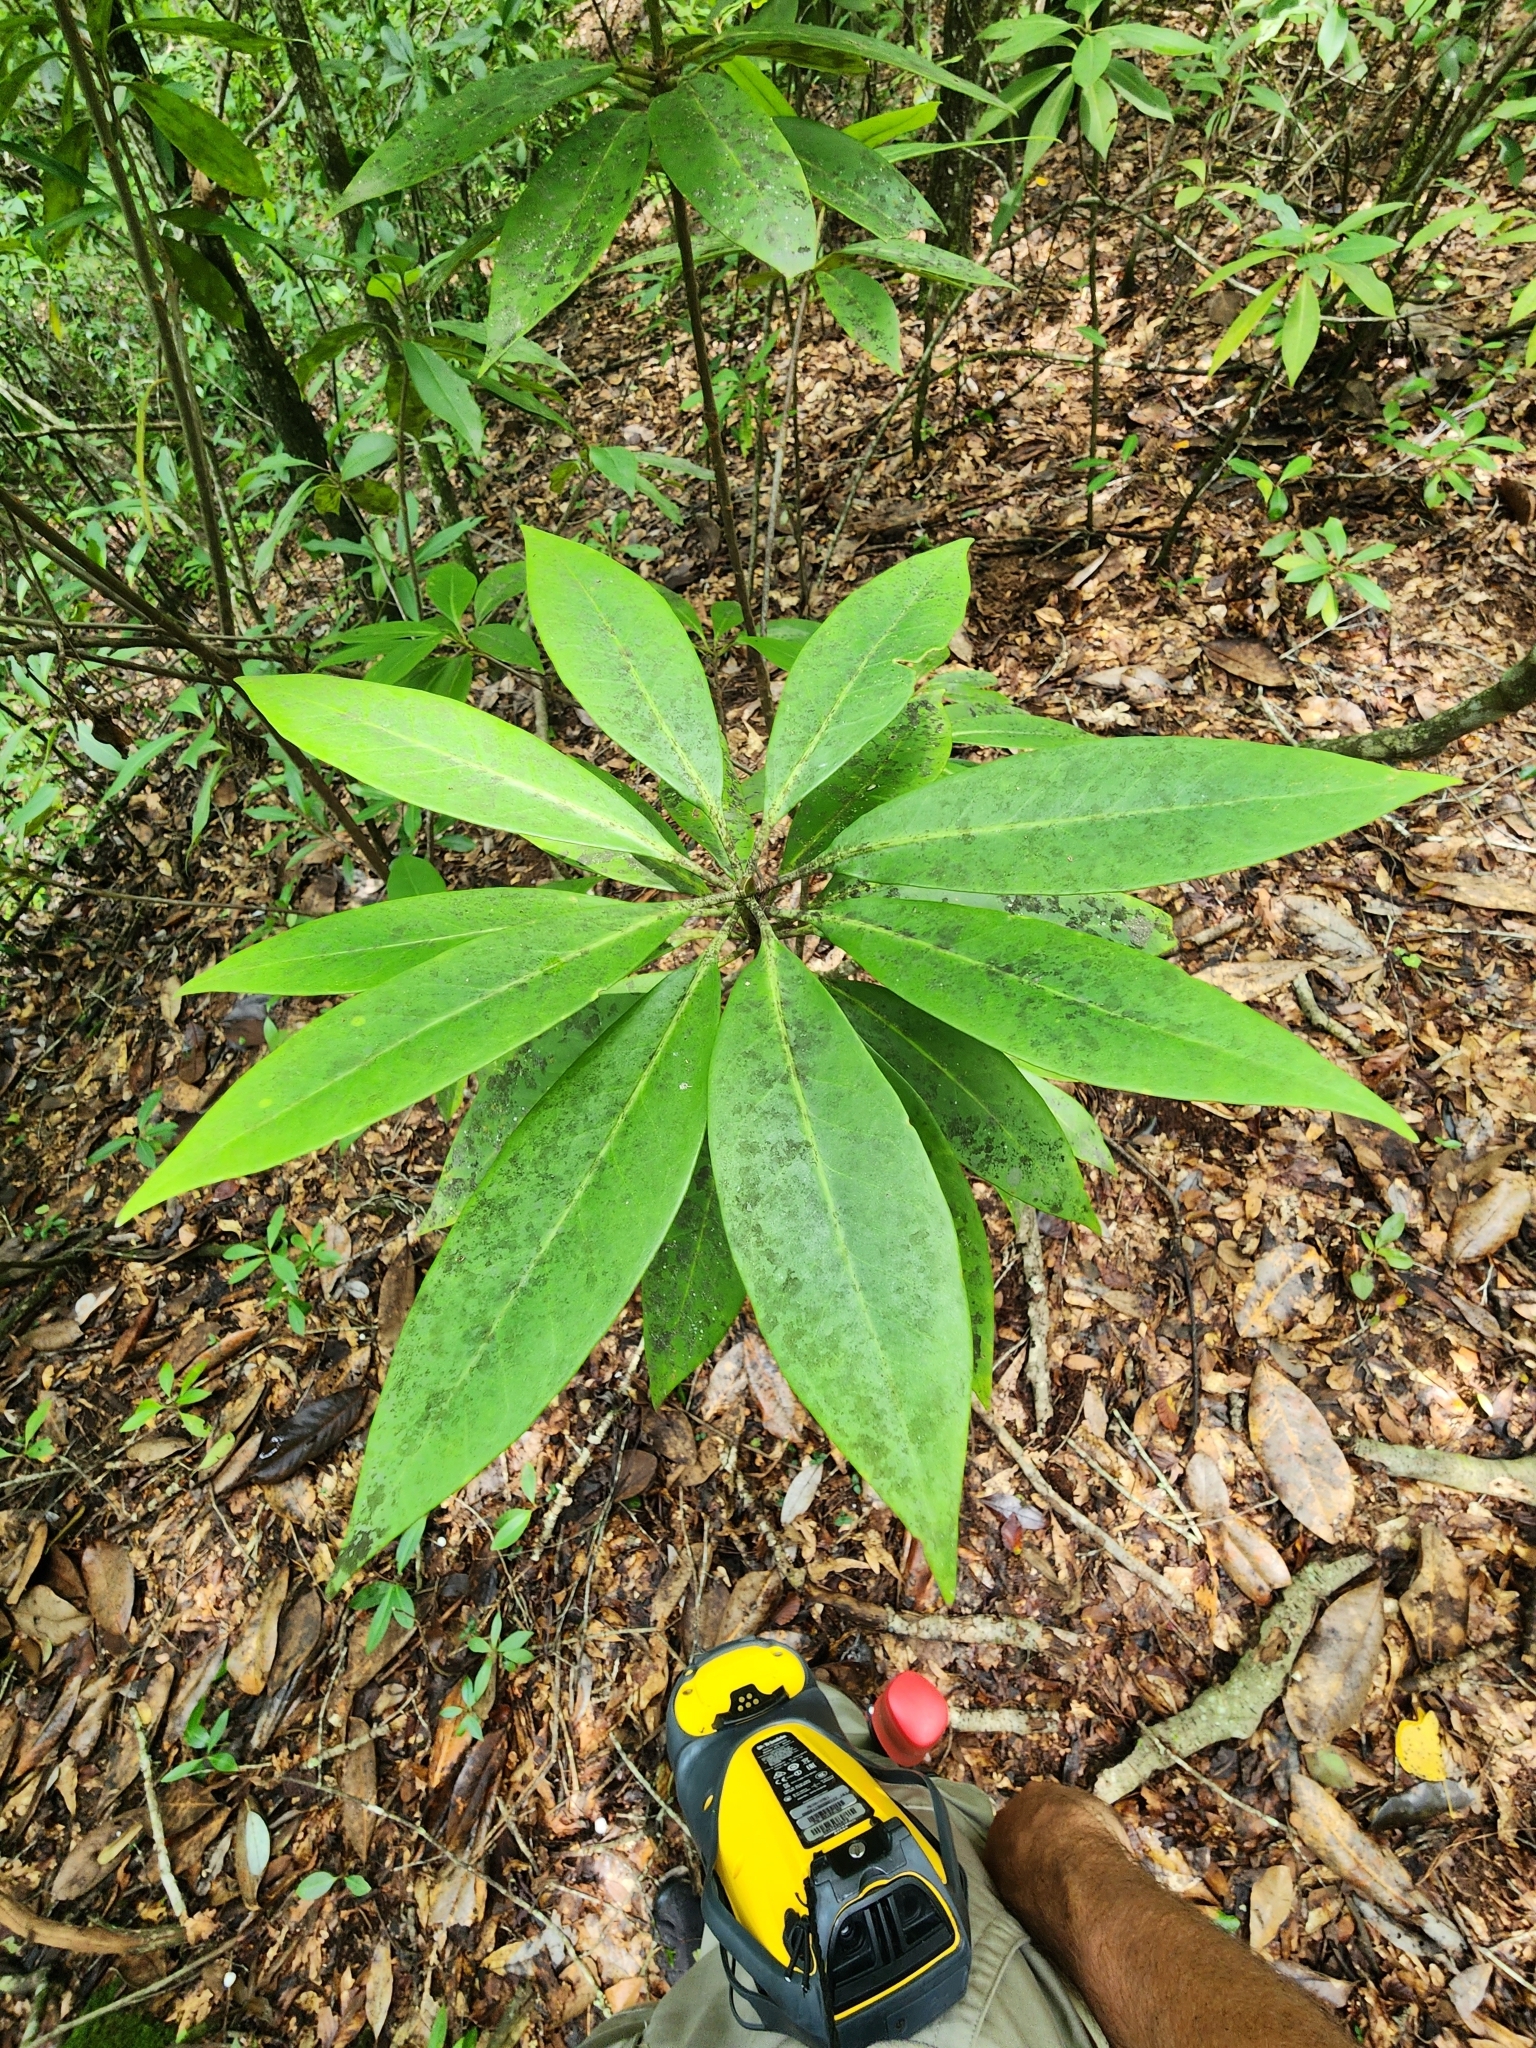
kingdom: Plantae
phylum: Tracheophyta
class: Magnoliopsida
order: Austrobaileyales
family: Schisandraceae
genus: Illicium
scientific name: Illicium floridanum
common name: Florida anisetree
